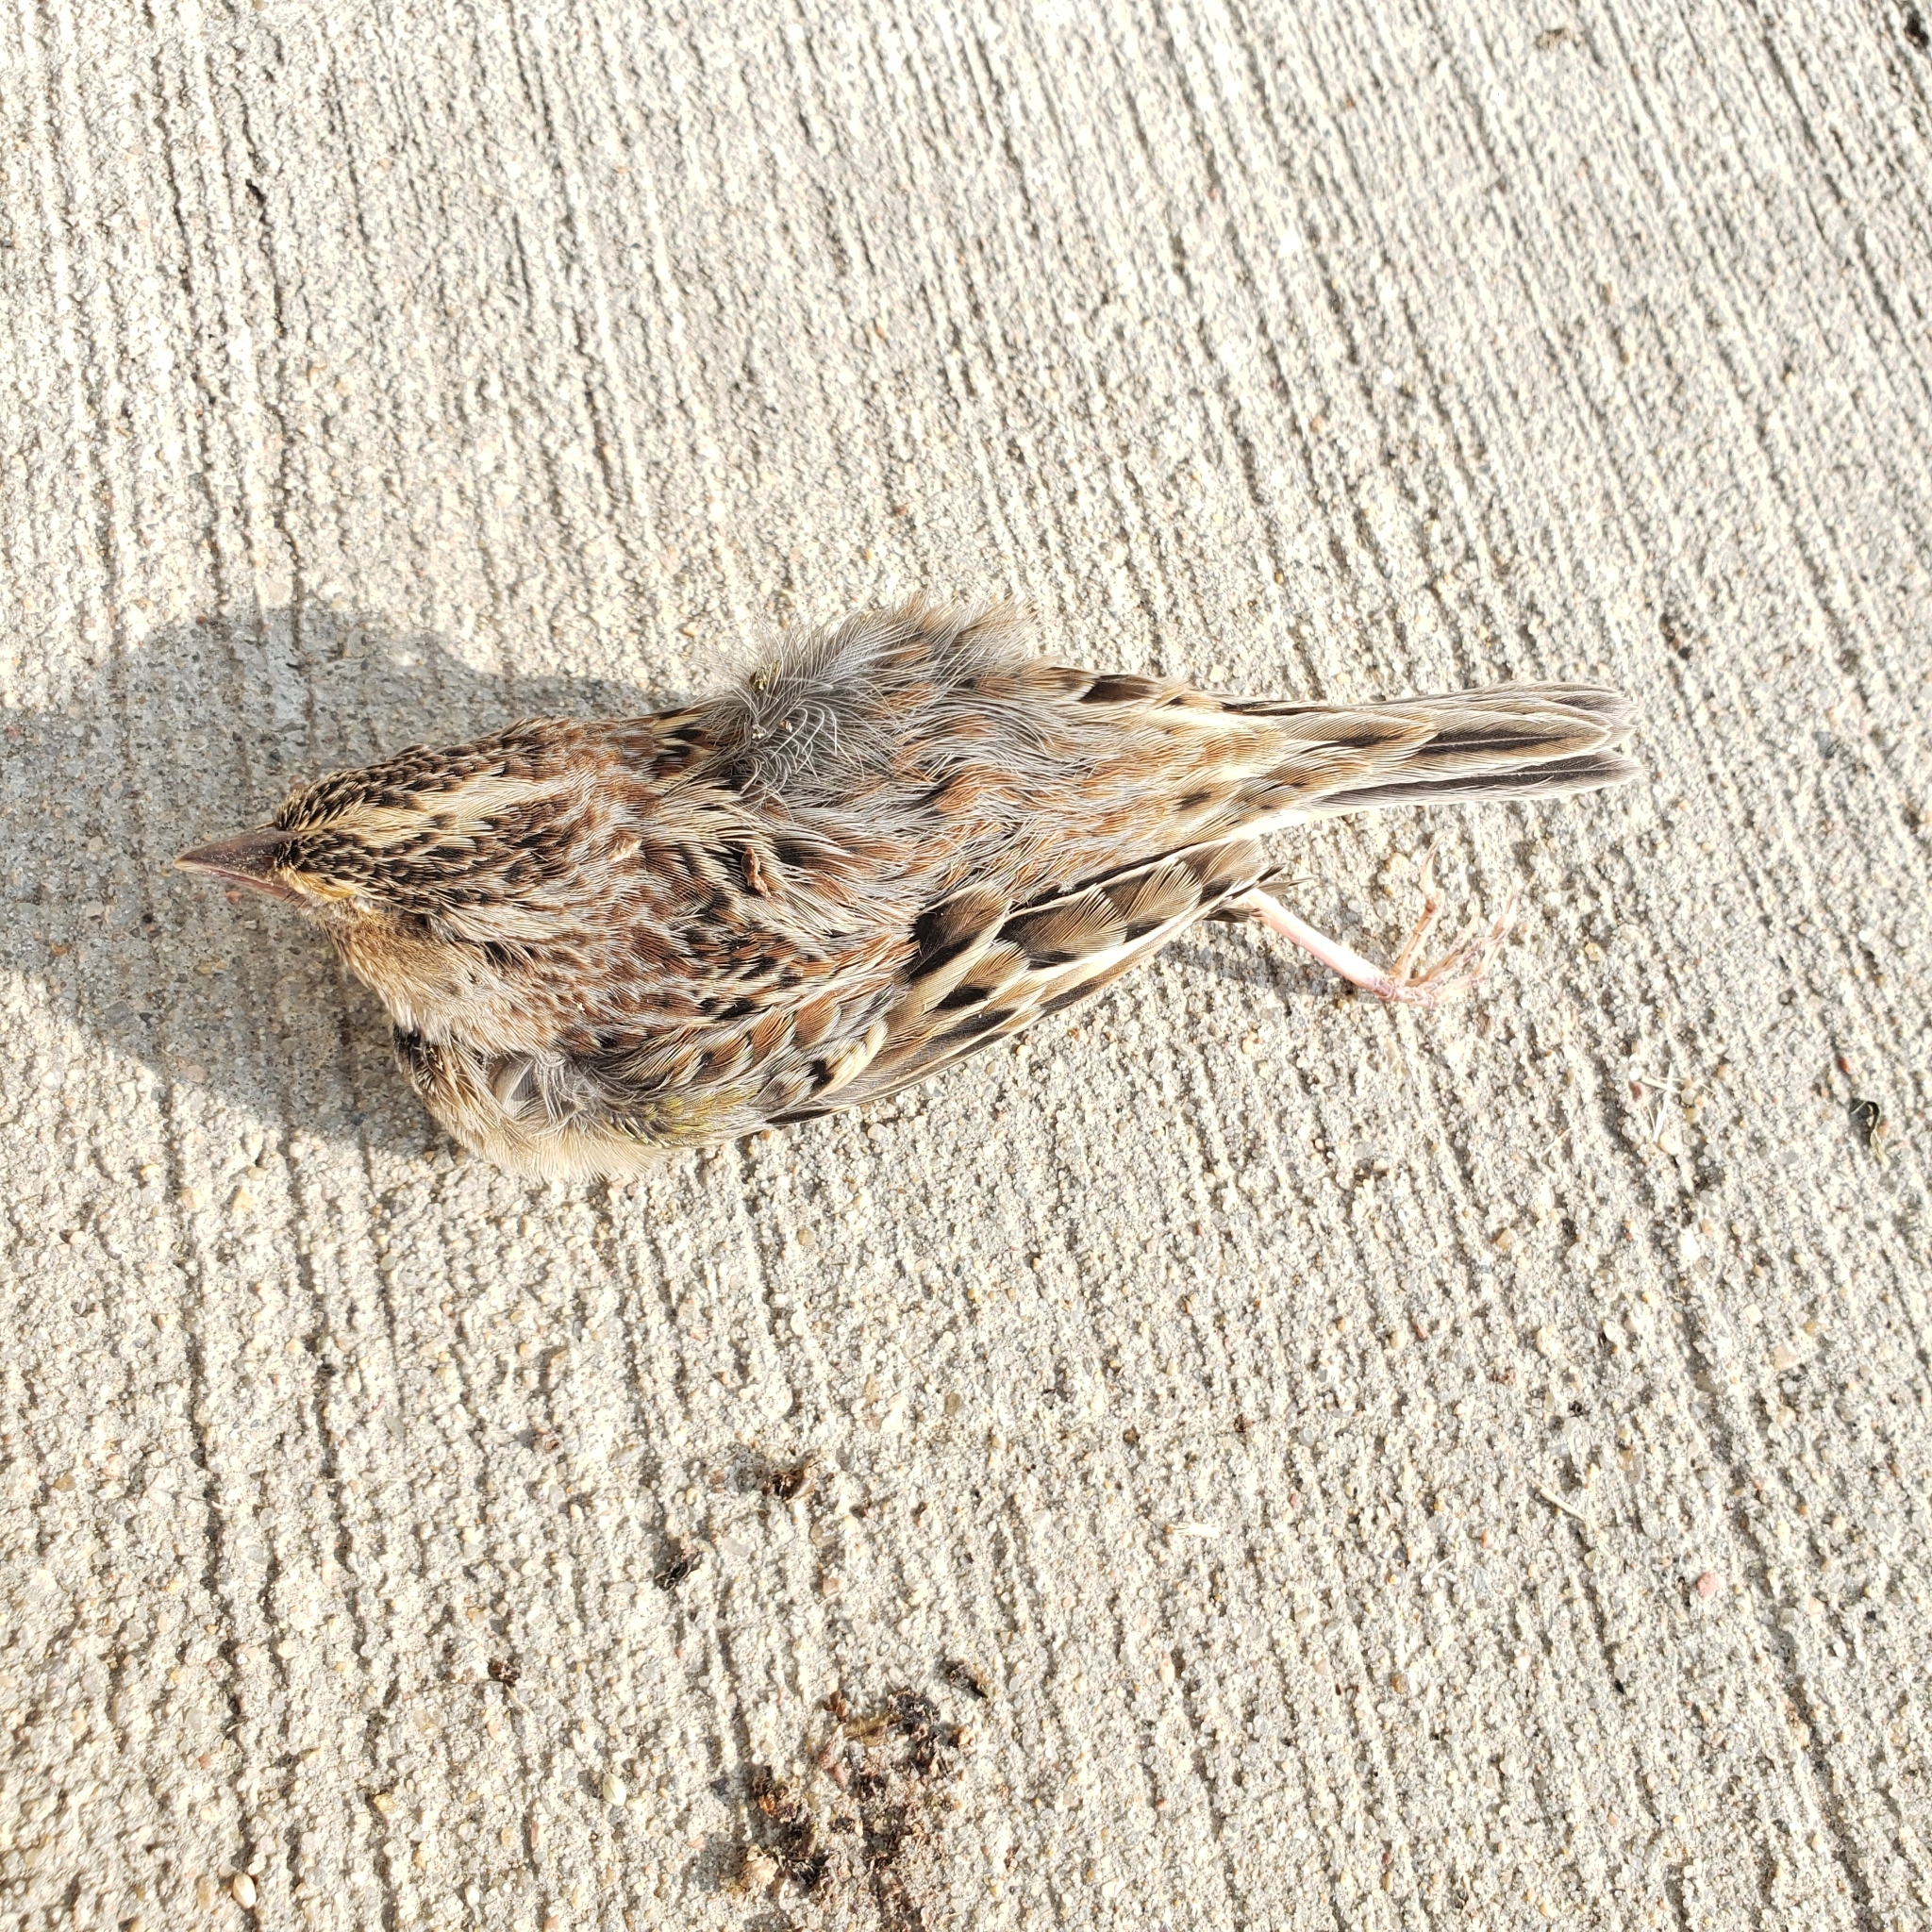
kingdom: Animalia
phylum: Chordata
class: Aves
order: Passeriformes
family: Passerellidae
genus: Ammodramus
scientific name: Ammodramus savannarum
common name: Grasshopper sparrow
